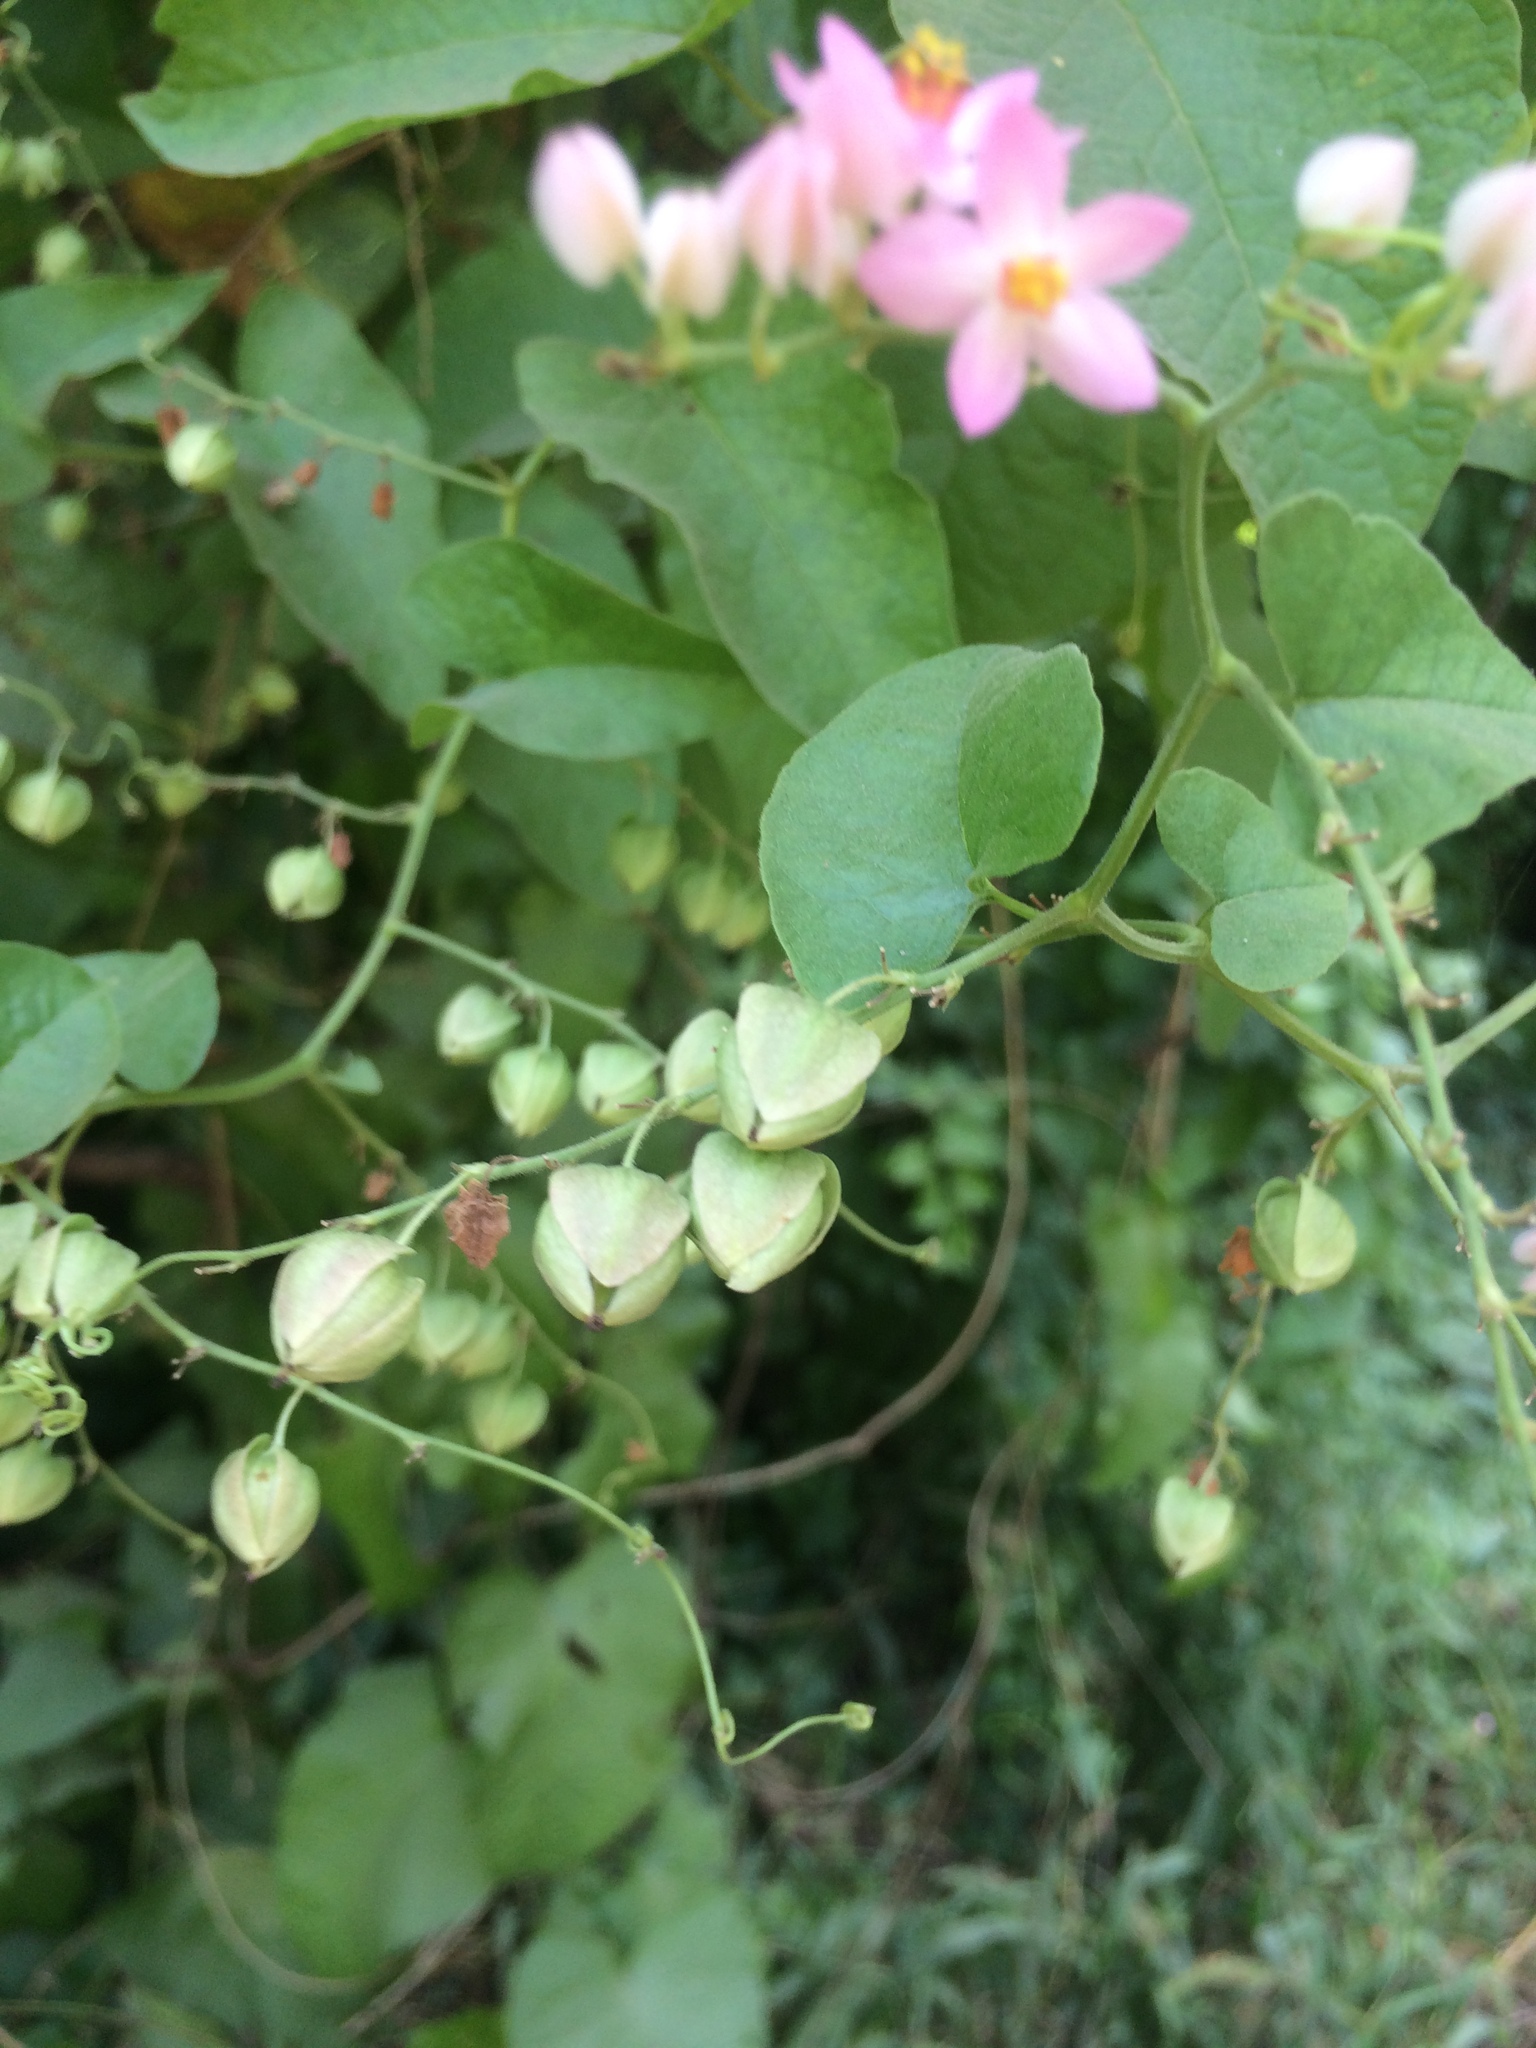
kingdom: Plantae
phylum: Tracheophyta
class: Magnoliopsida
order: Caryophyllales
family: Polygonaceae
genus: Antigonon
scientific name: Antigonon leptopus
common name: Coral vine
